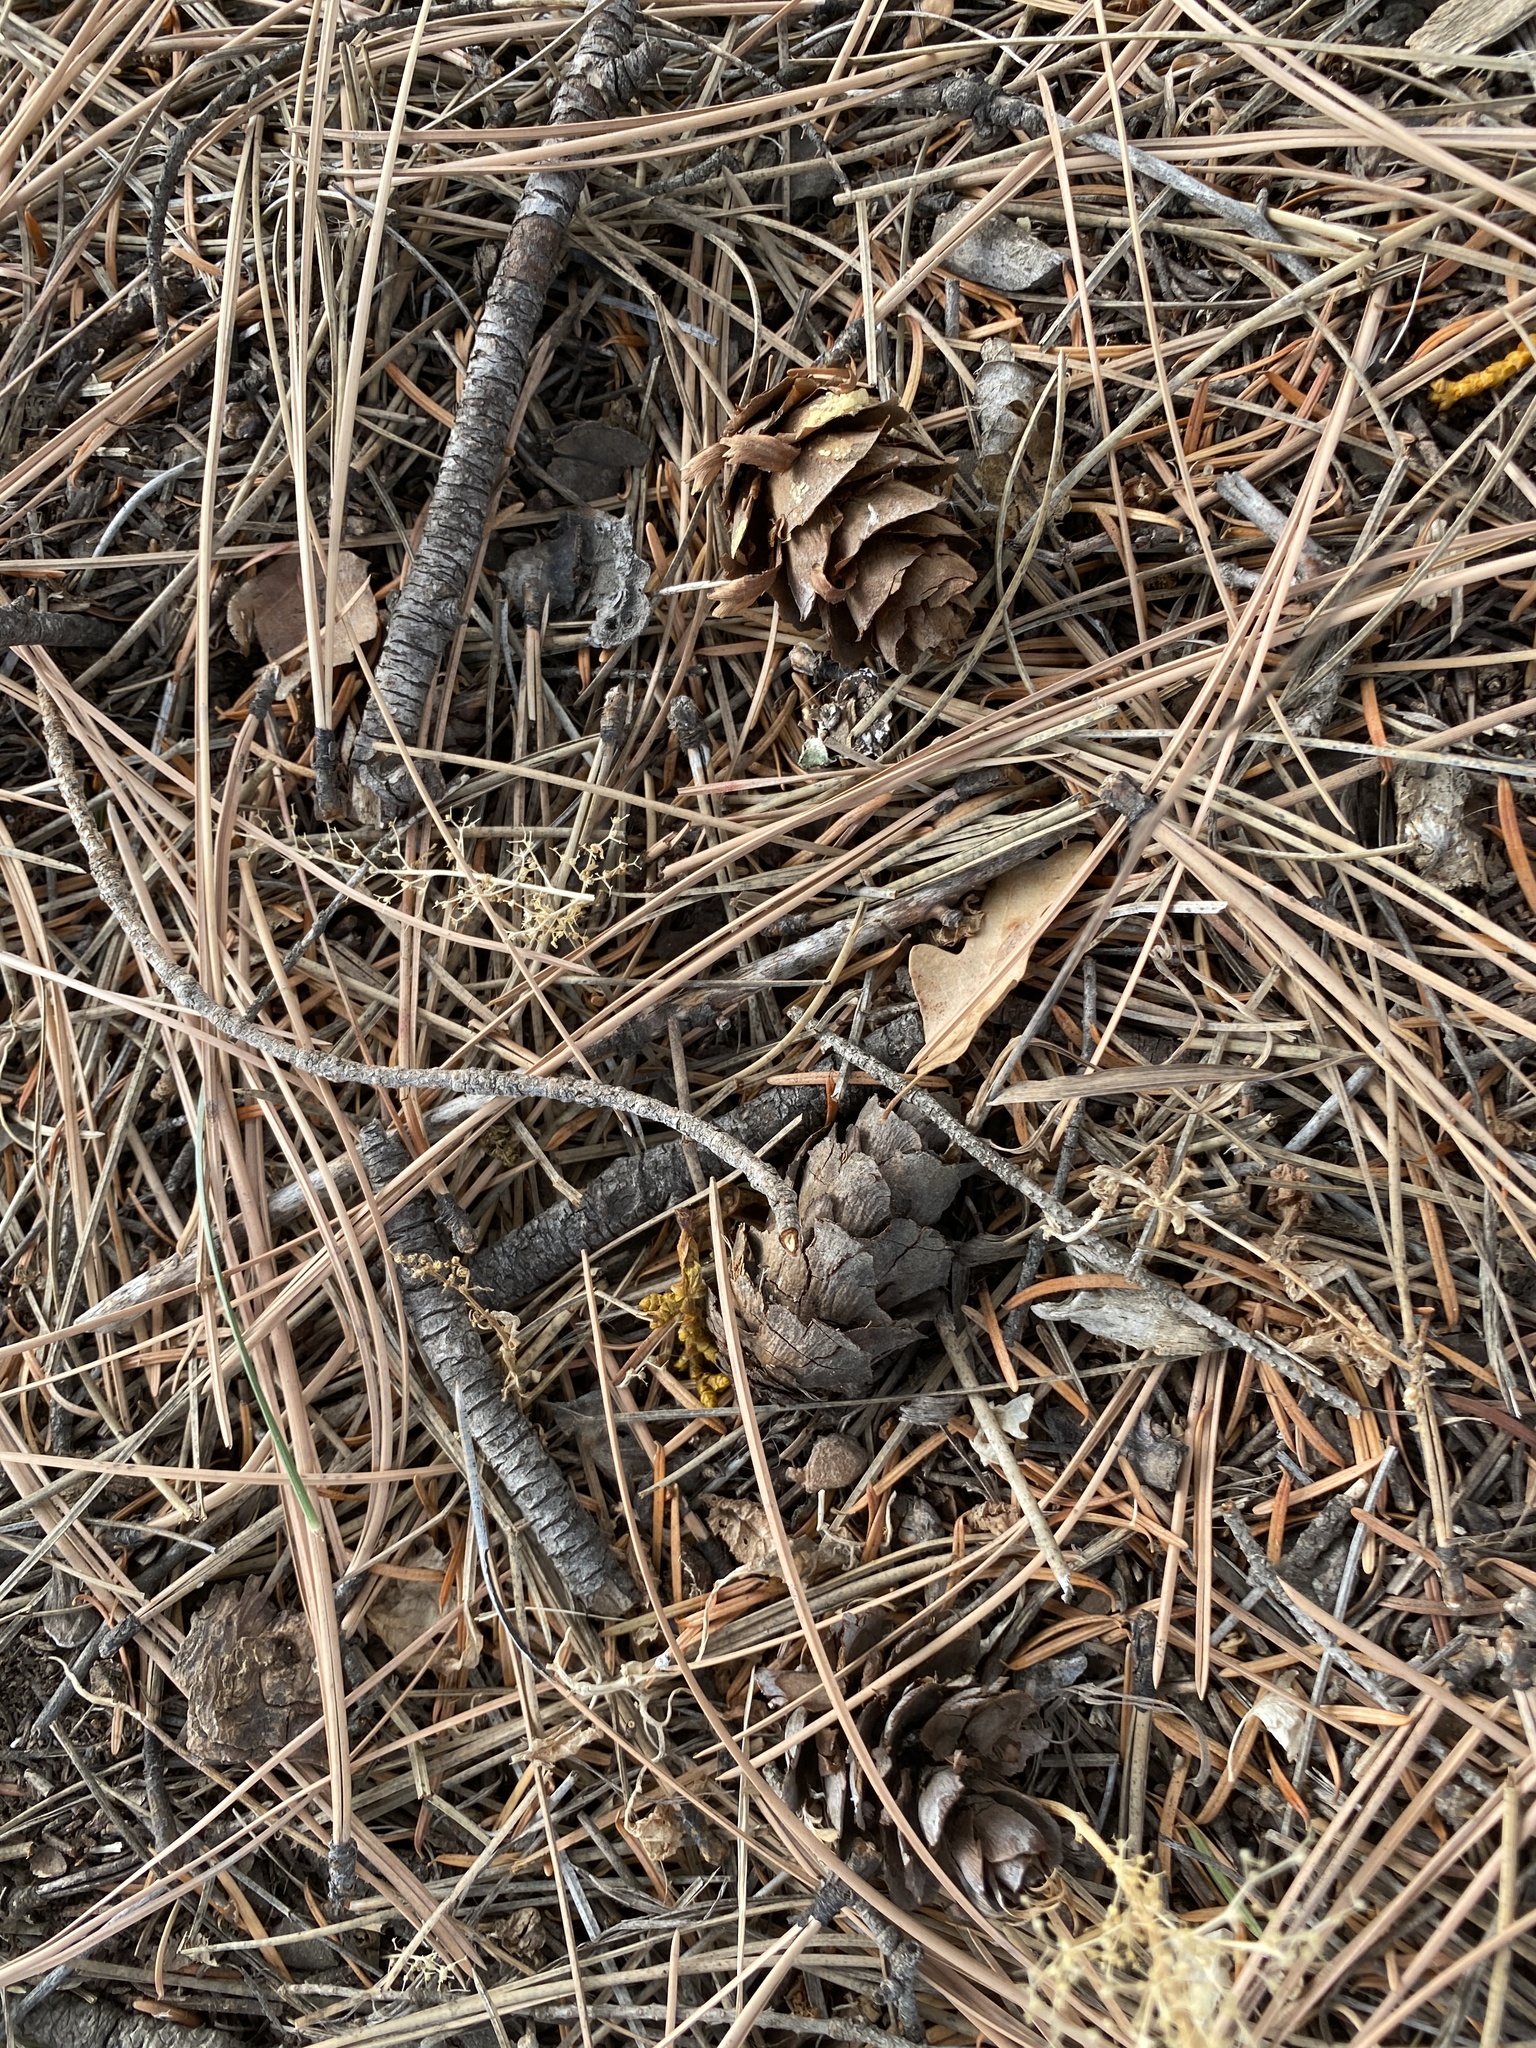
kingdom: Plantae
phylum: Tracheophyta
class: Pinopsida
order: Pinales
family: Pinaceae
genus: Pseudotsuga
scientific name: Pseudotsuga menziesii
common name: Douglas fir
